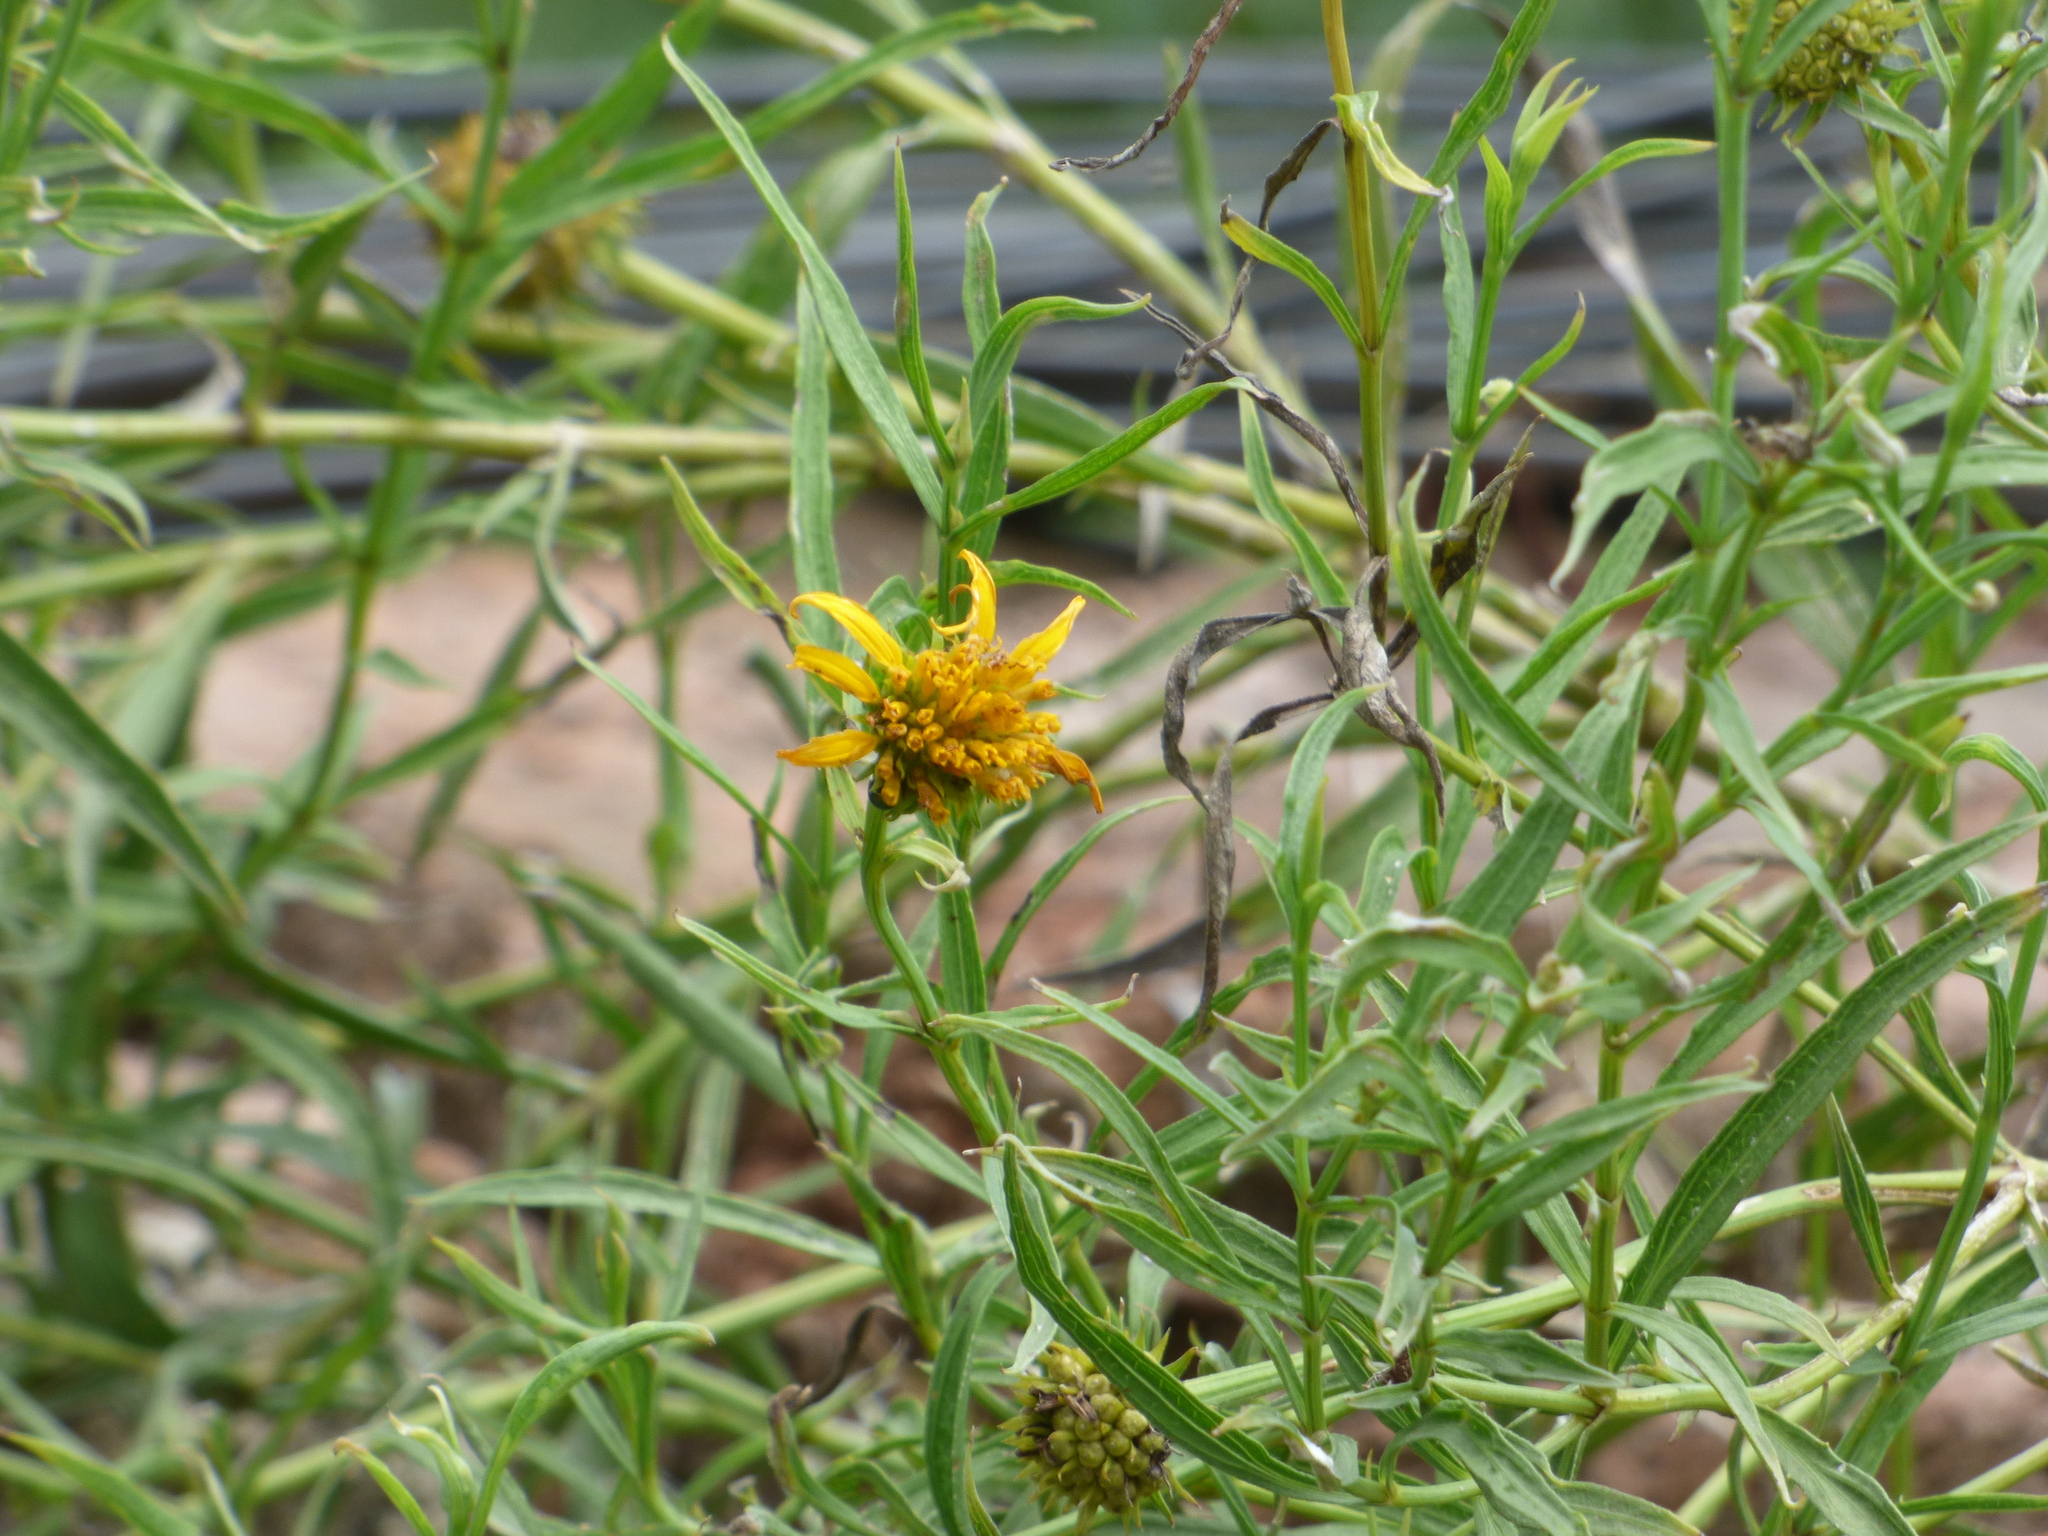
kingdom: Plantae
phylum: Tracheophyta
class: Magnoliopsida
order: Asterales
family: Asteraceae
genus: Pascalia
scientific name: Pascalia glauca
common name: Beach creeping oxeye
